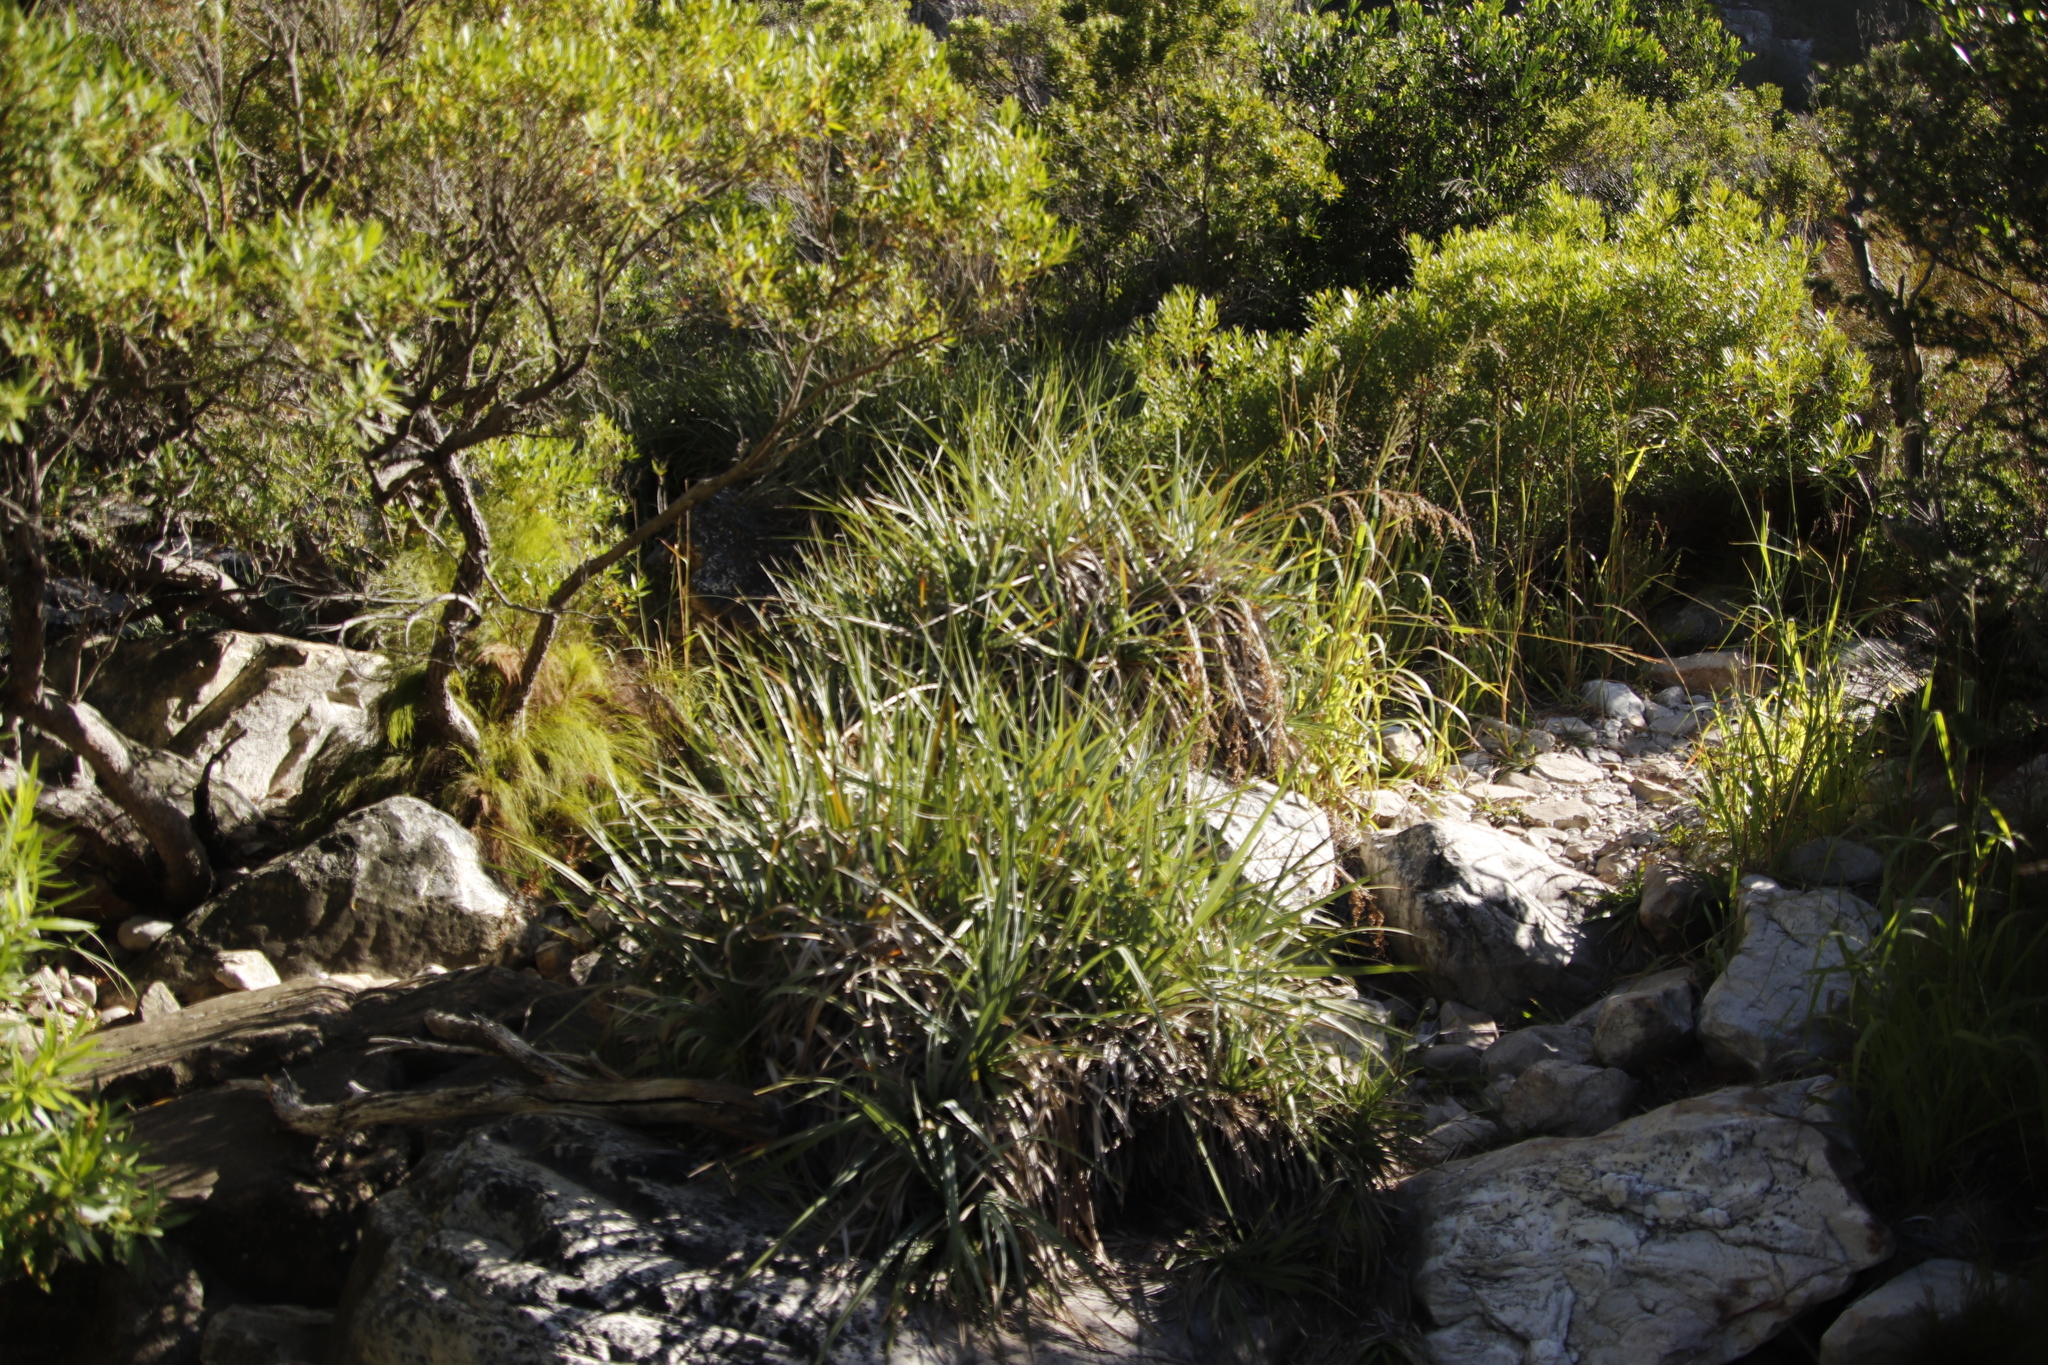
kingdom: Plantae
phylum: Tracheophyta
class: Liliopsida
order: Poales
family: Thurniaceae
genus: Prionium
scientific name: Prionium serratum
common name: Palmiet
